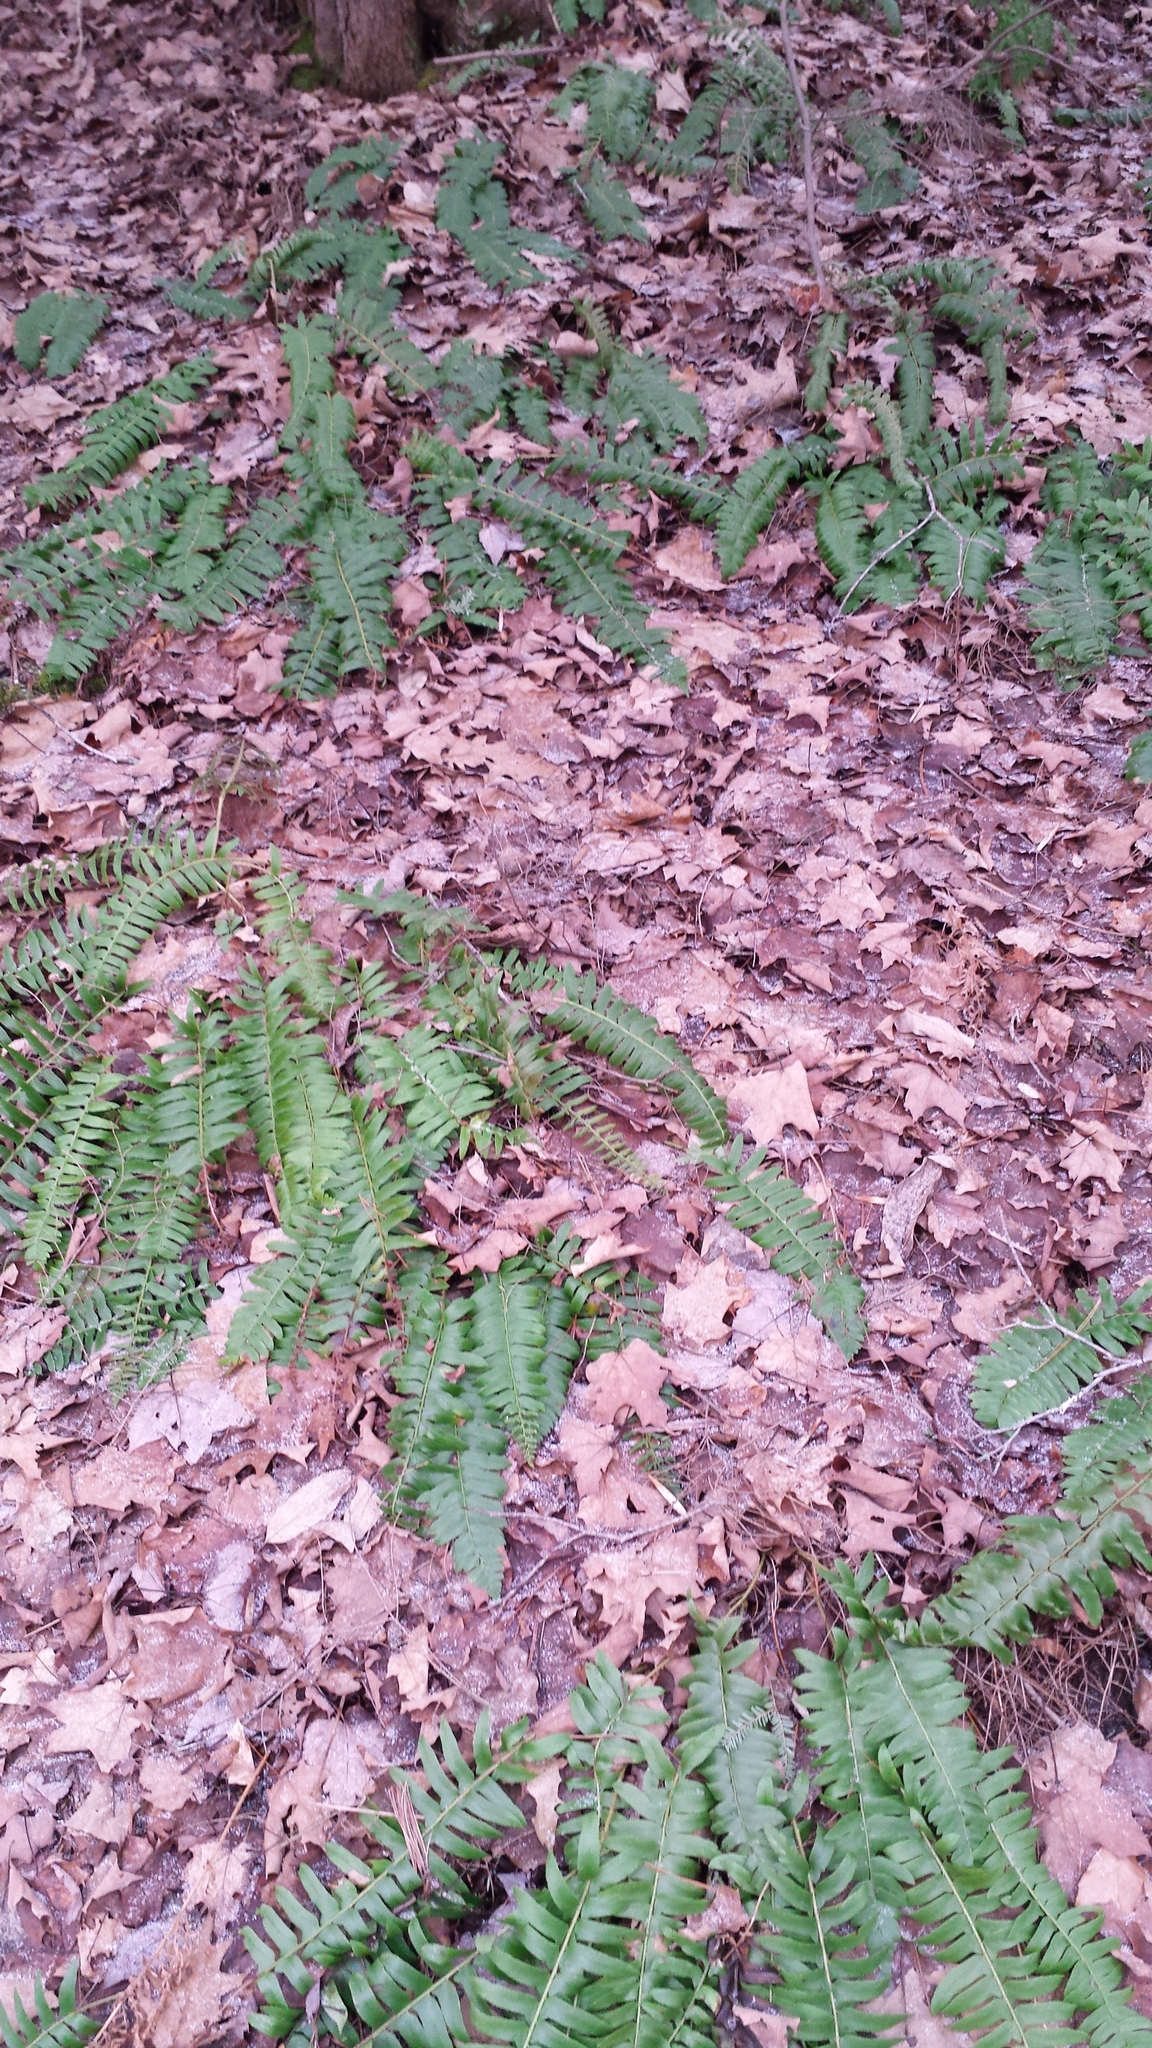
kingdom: Plantae
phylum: Tracheophyta
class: Polypodiopsida
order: Polypodiales
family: Dryopteridaceae
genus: Polystichum
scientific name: Polystichum acrostichoides
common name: Christmas fern
